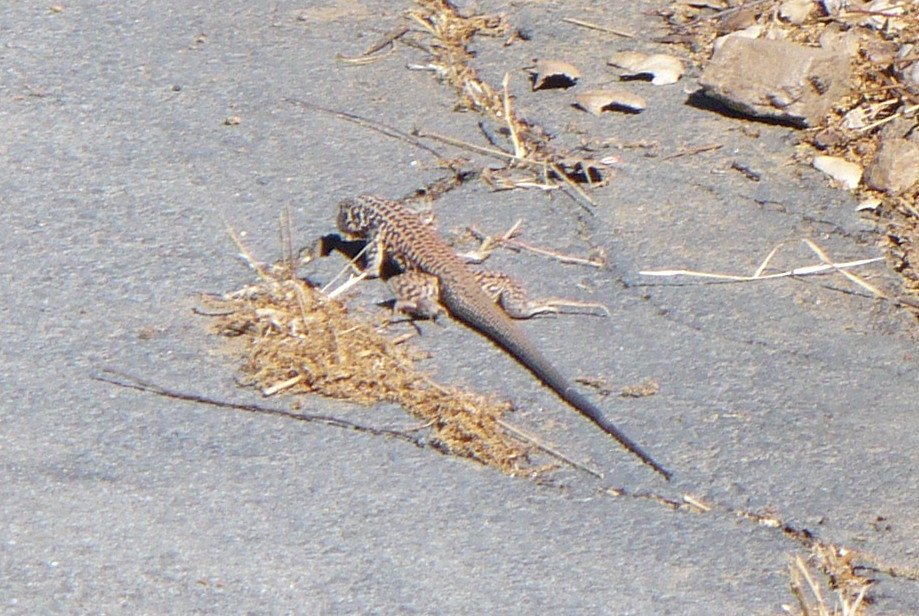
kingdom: Animalia
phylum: Chordata
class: Squamata
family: Teiidae
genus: Aspidoscelis
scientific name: Aspidoscelis tigris
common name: Tiger whiptail
